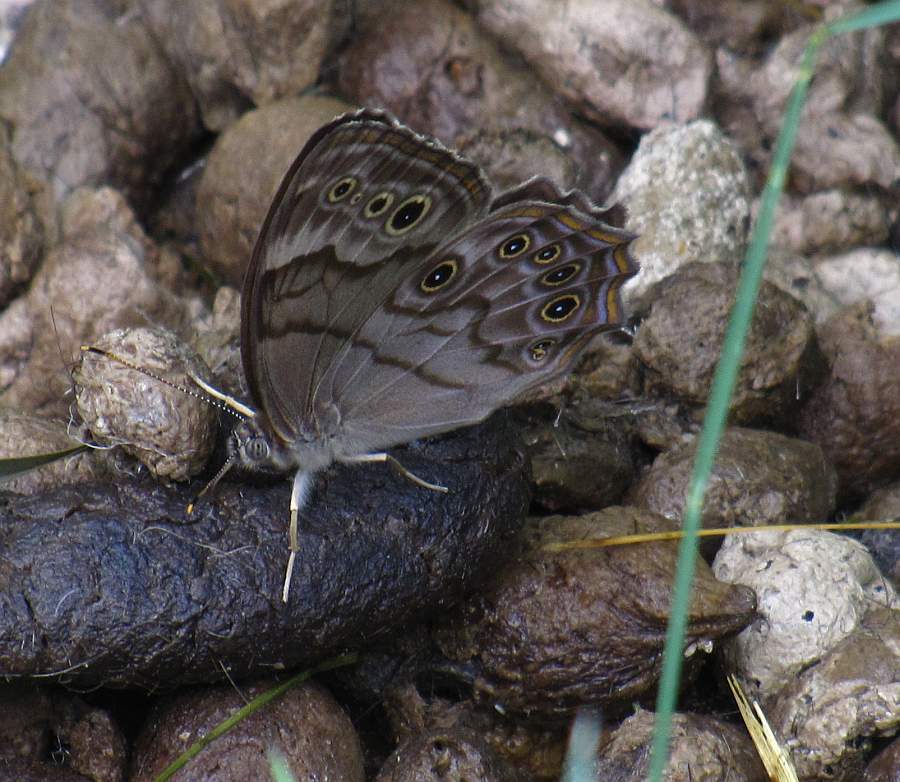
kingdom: Animalia
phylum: Arthropoda
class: Insecta
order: Lepidoptera
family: Nymphalidae
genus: Lethe
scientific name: Lethe anthedon
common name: Northern pearly-eye
